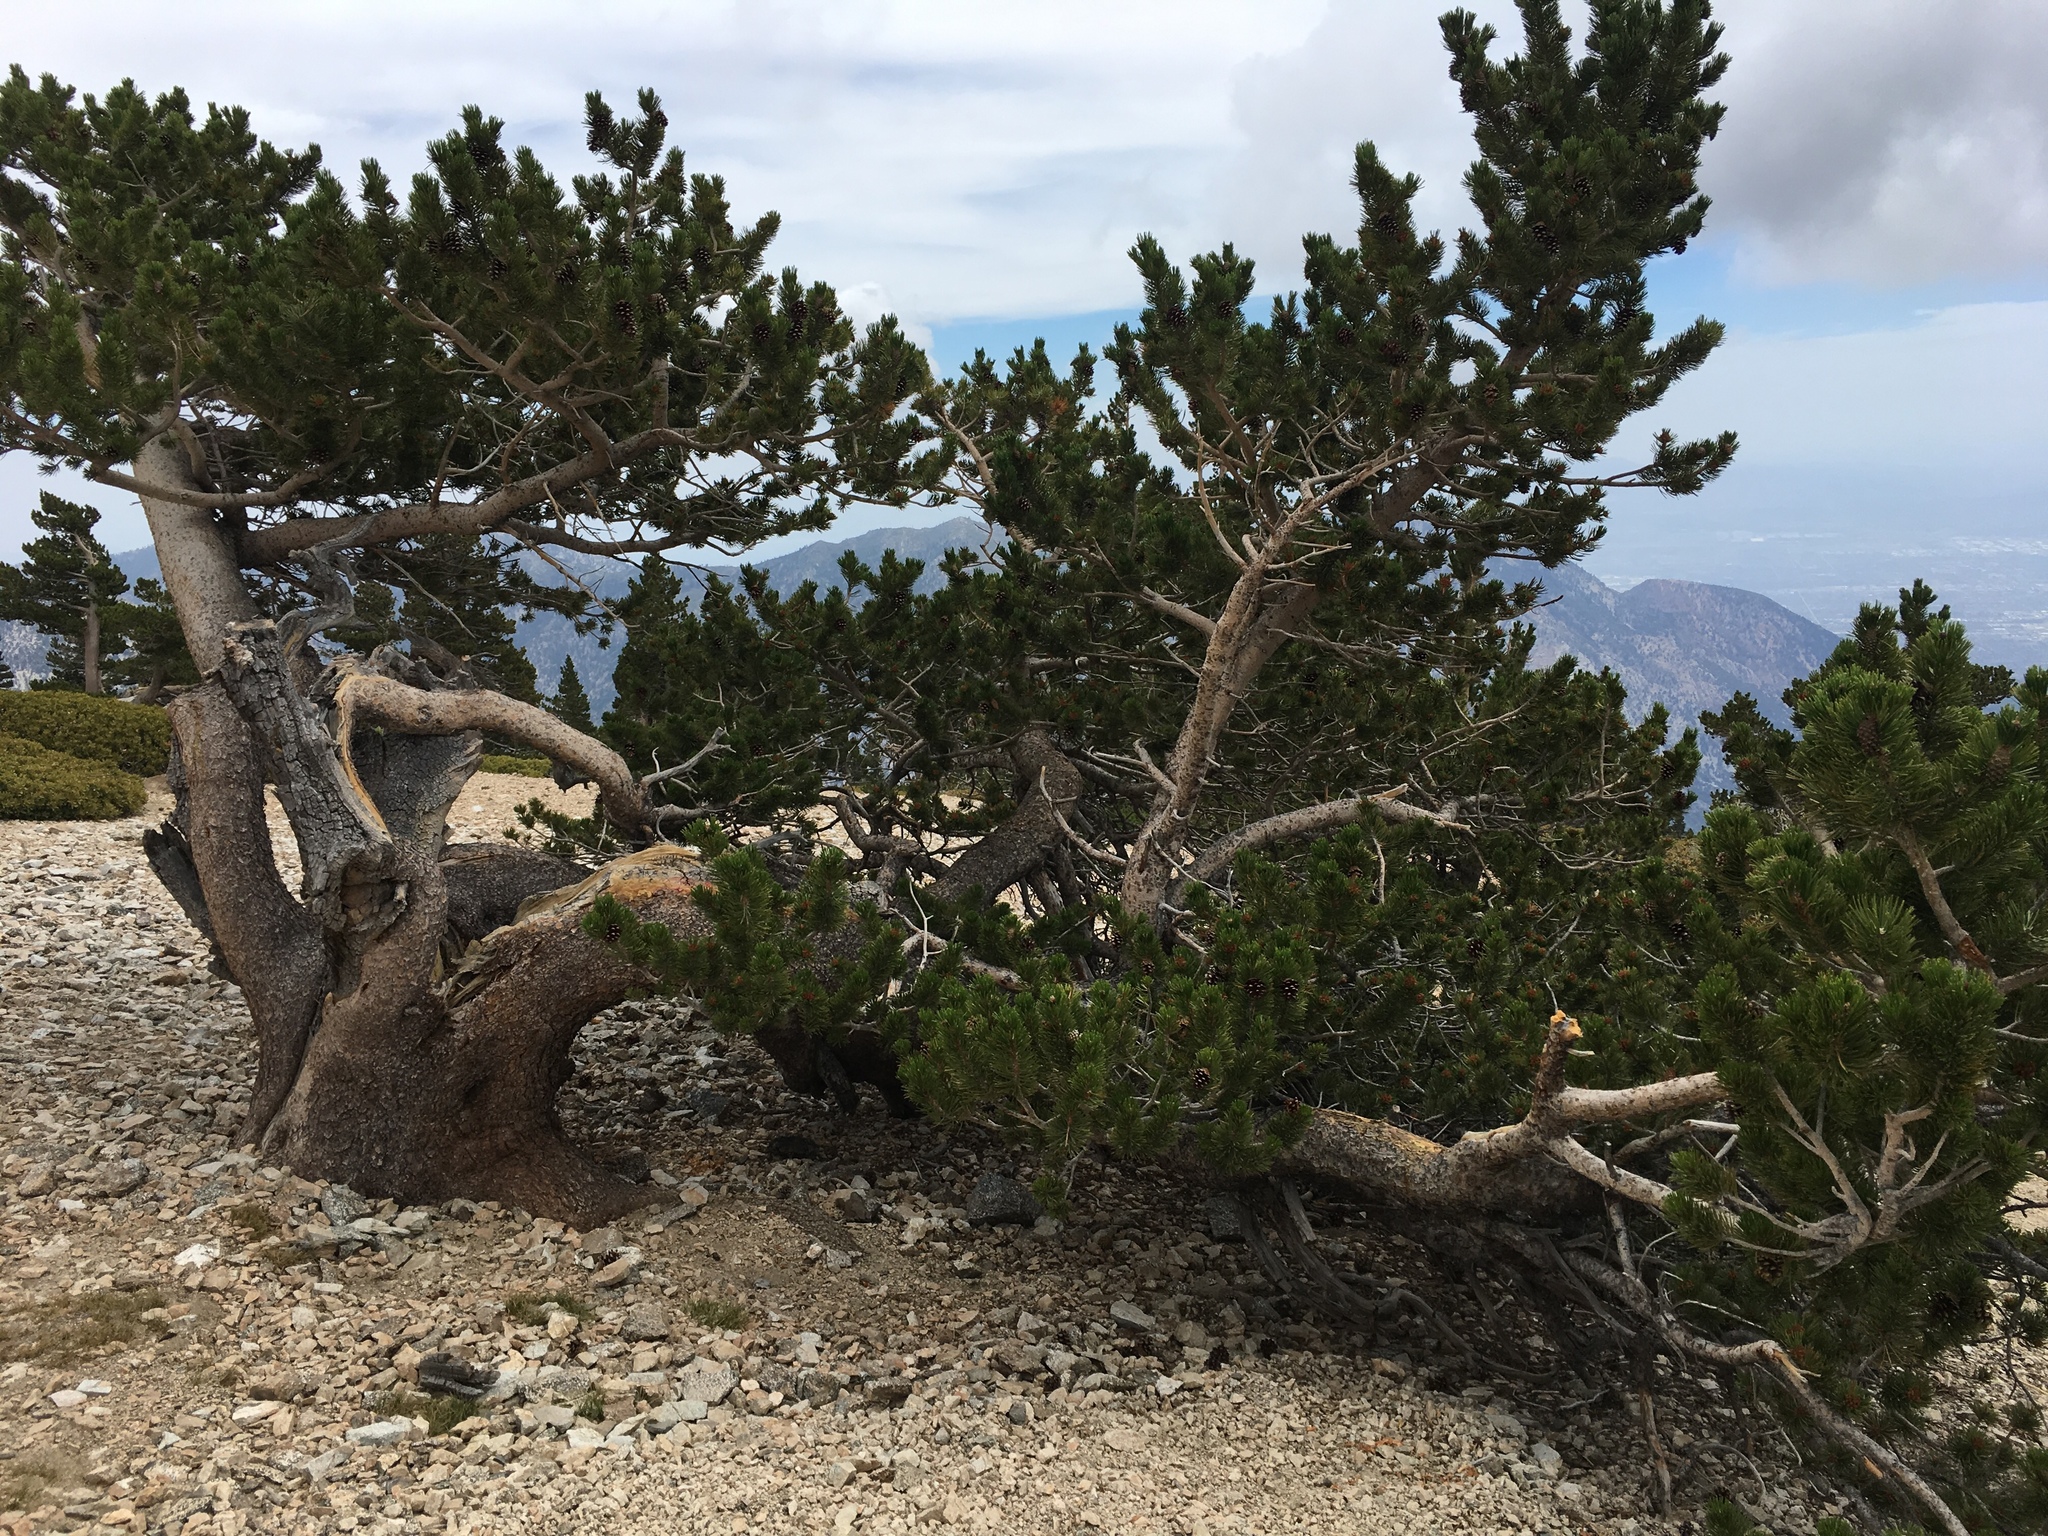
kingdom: Plantae
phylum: Tracheophyta
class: Pinopsida
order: Pinales
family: Pinaceae
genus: Pinus
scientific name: Pinus flexilis
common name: Limber pine
